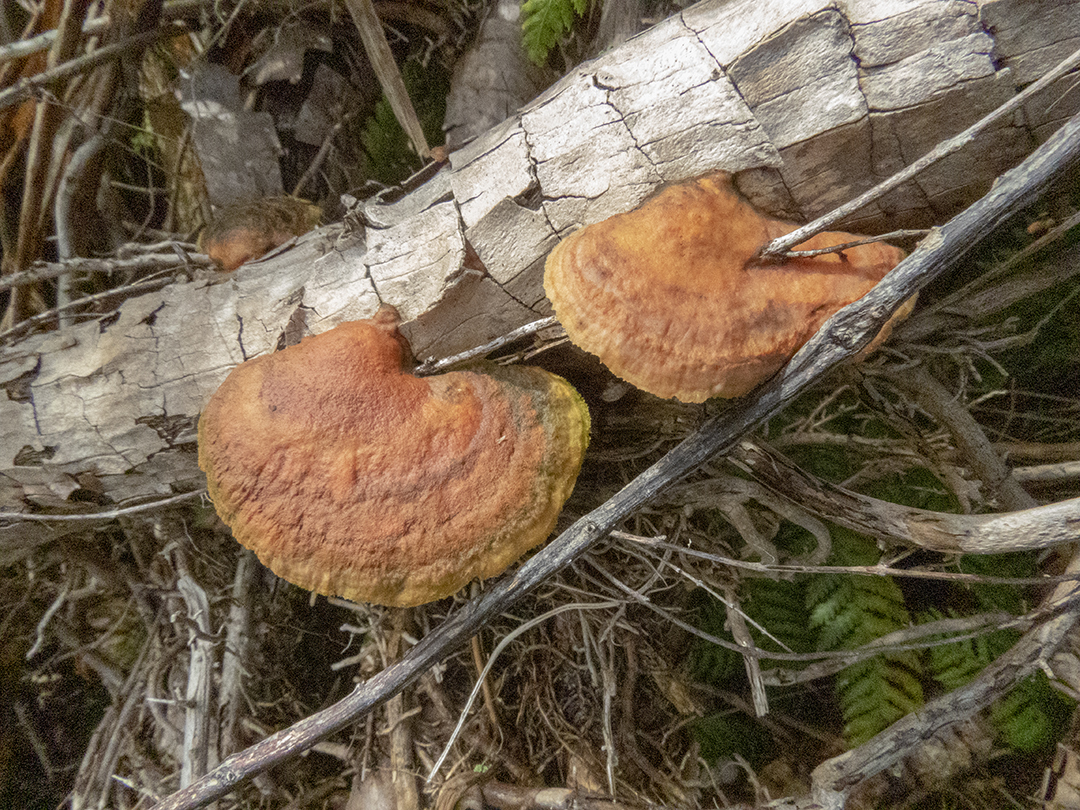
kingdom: Fungi
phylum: Basidiomycota
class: Agaricomycetes
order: Polyporales
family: Polyporaceae
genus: Trametes
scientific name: Trametes coccinea
